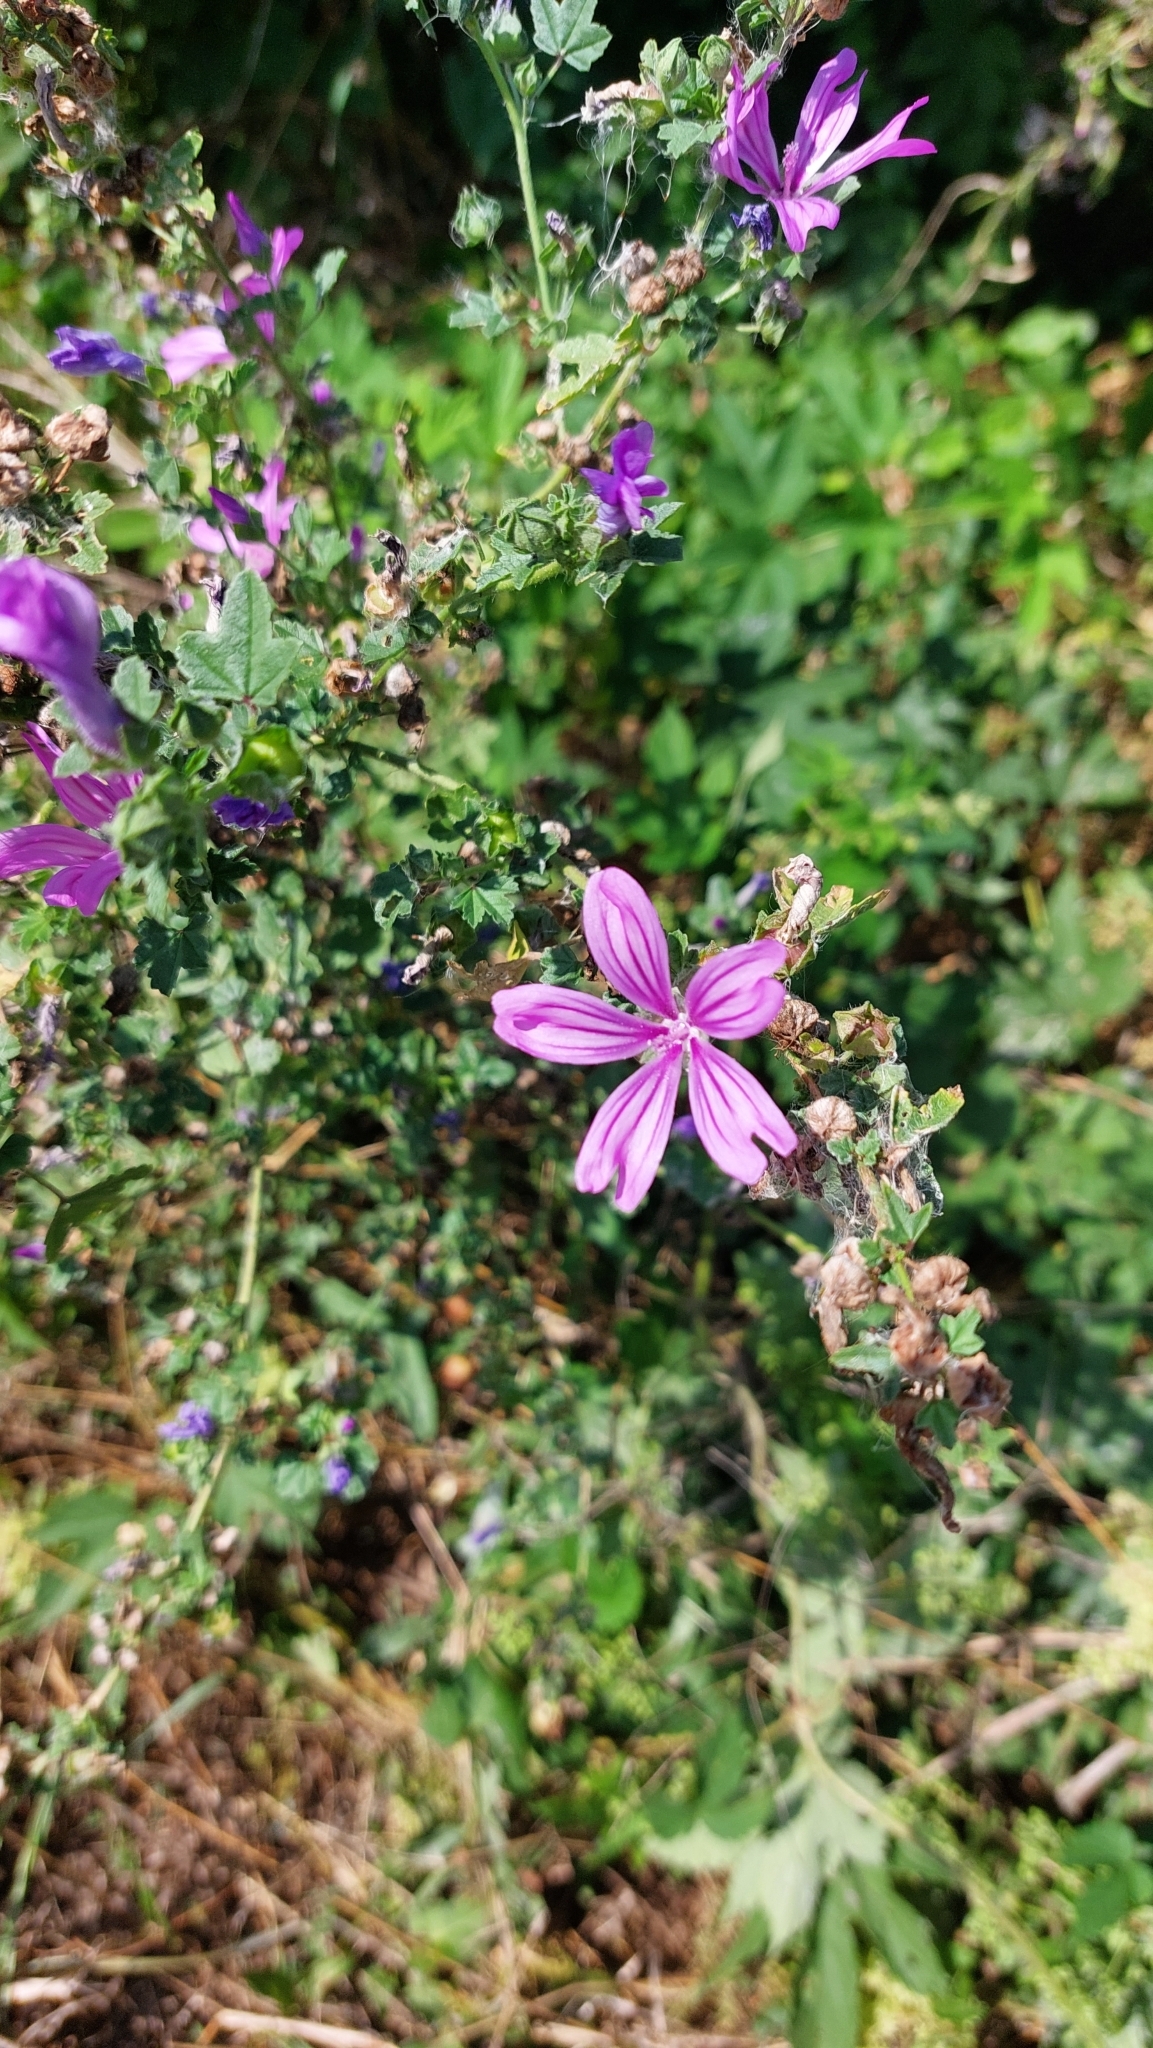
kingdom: Plantae
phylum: Tracheophyta
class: Magnoliopsida
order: Malvales
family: Malvaceae
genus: Malva
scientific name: Malva sylvestris
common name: Common mallow
